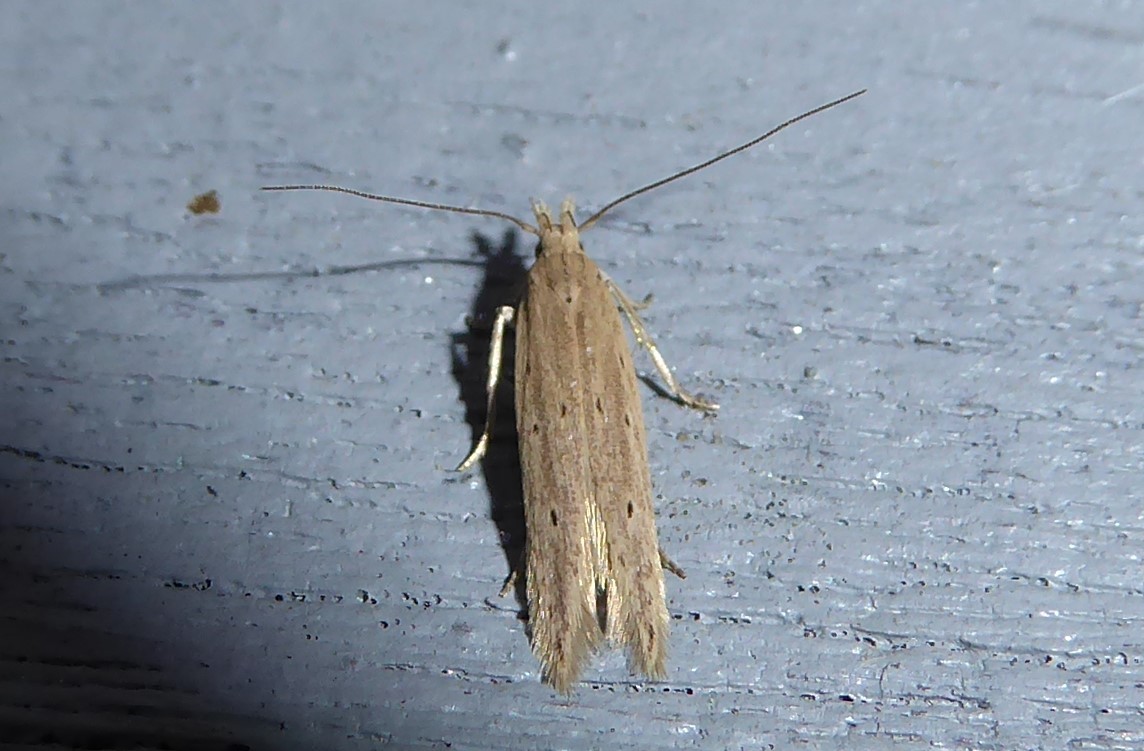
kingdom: Animalia
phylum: Arthropoda
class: Insecta
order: Lepidoptera
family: Gelechiidae
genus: Epiphthora
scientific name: Epiphthora calamogonus
